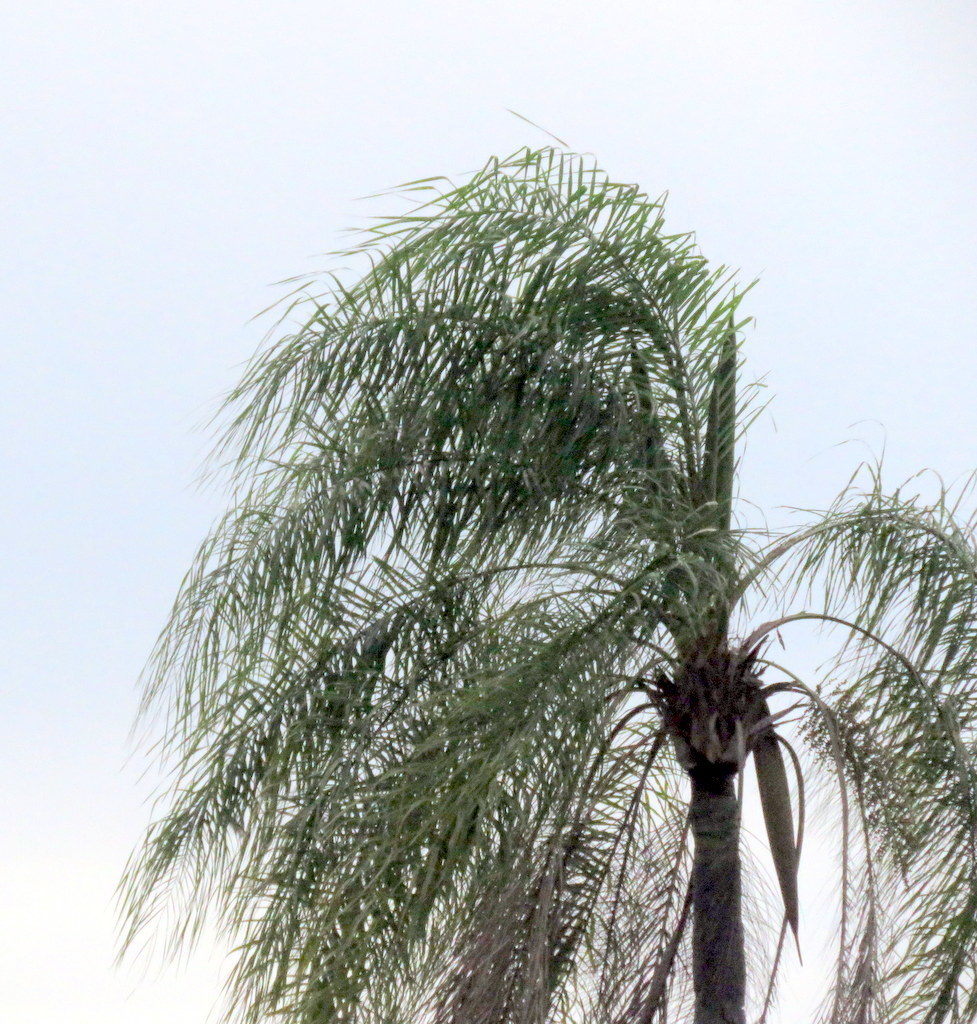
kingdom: Plantae
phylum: Tracheophyta
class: Liliopsida
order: Arecales
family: Arecaceae
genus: Syagrus
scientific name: Syagrus romanzoffiana
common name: Queen palm
